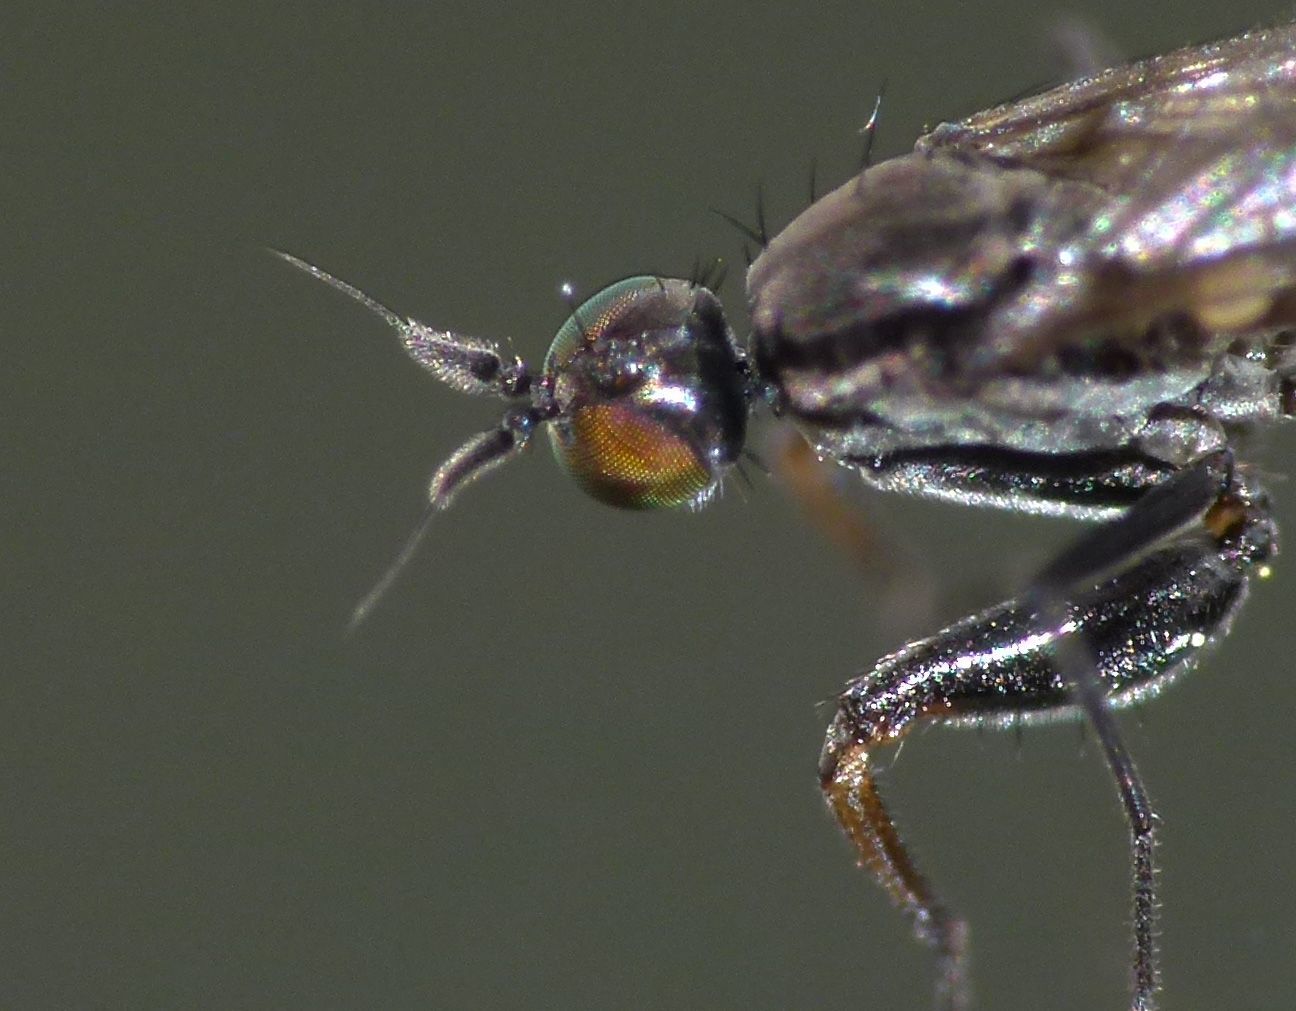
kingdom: Animalia
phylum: Arthropoda
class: Insecta
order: Diptera
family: Empididae
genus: Chelipoda
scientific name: Chelipoda inconspicua
